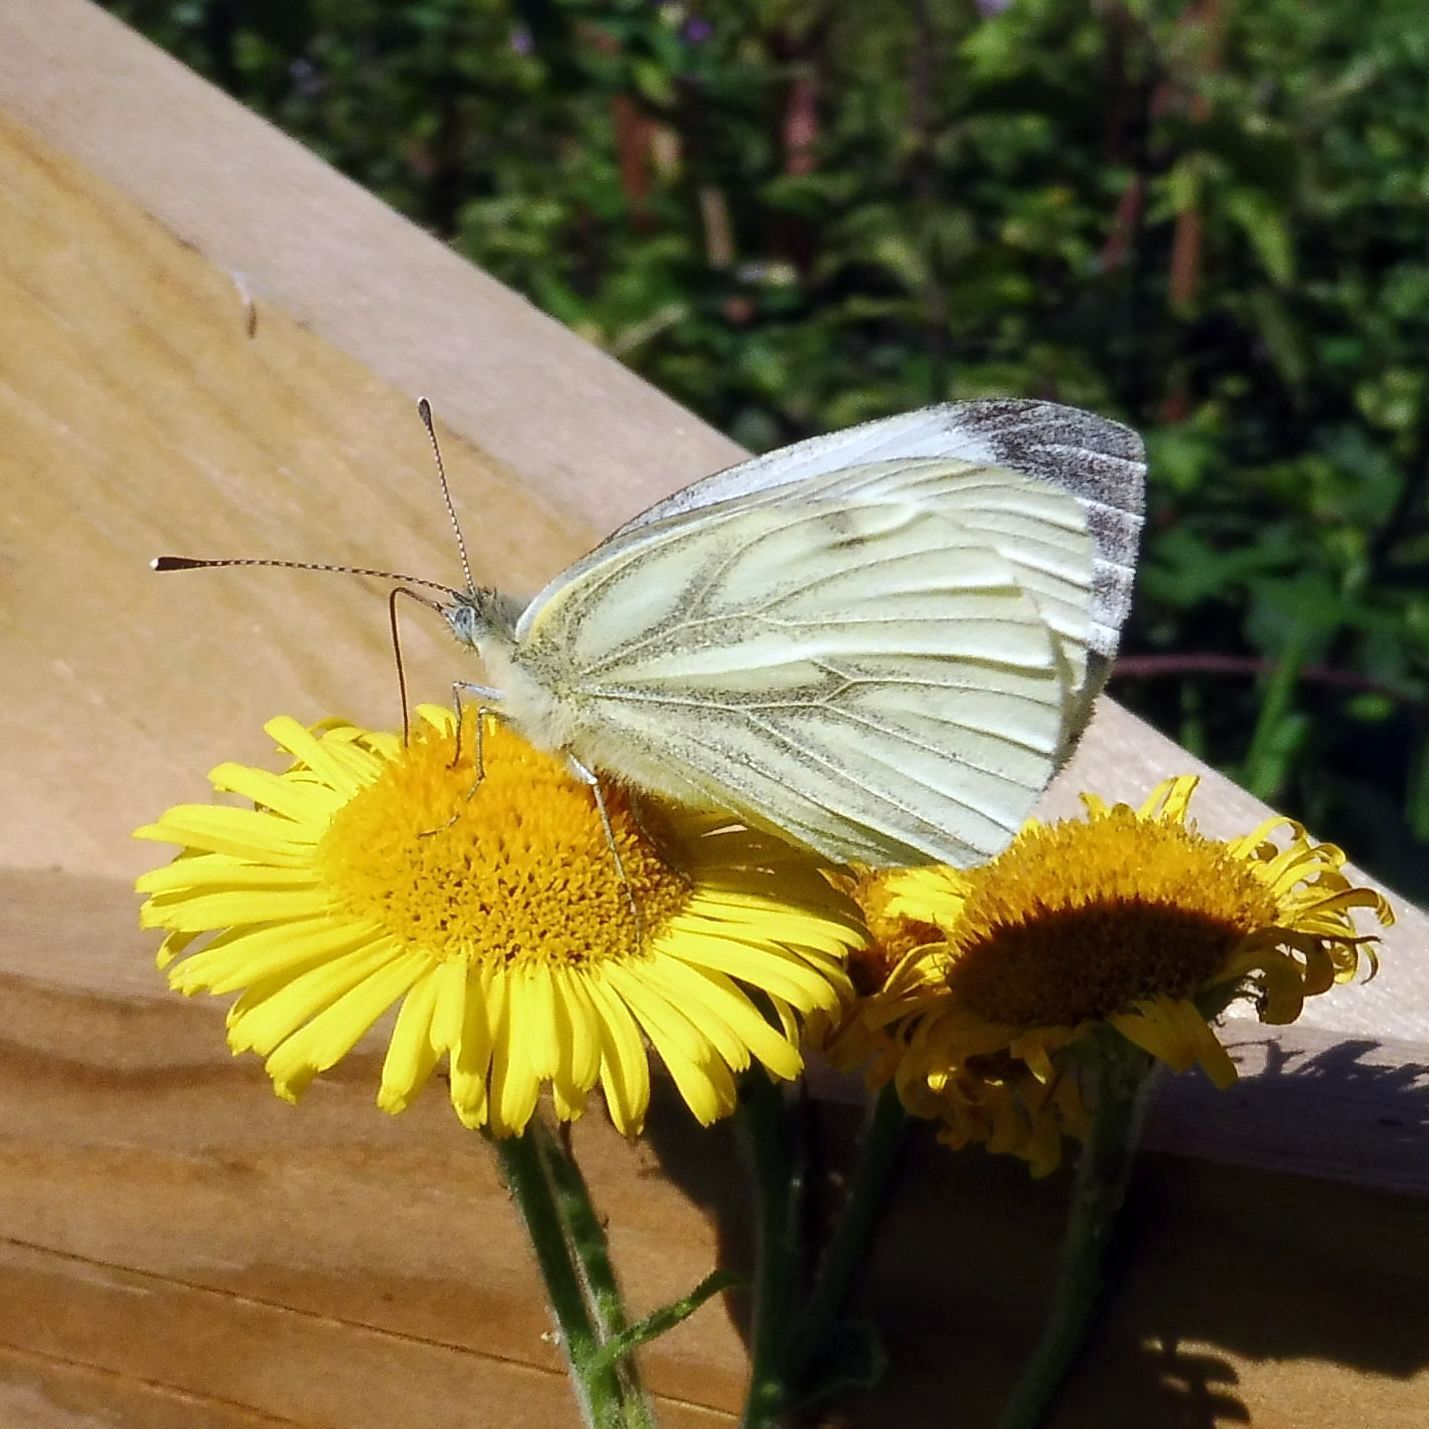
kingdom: Animalia
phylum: Arthropoda
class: Insecta
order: Lepidoptera
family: Pieridae
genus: Pieris
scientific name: Pieris napi
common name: Green-veined white
